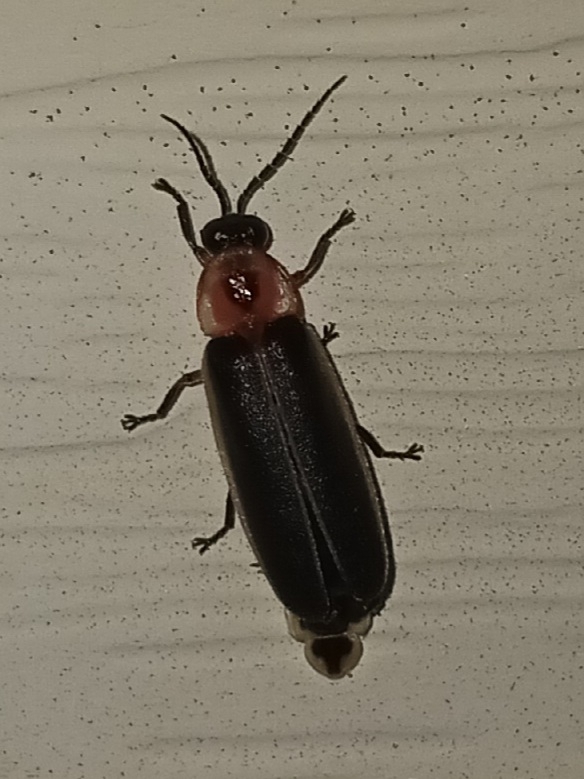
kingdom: Animalia
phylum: Arthropoda
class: Insecta
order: Coleoptera
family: Lampyridae
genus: Photinus
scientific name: Photinus pyralis
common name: Big dipper firefly
